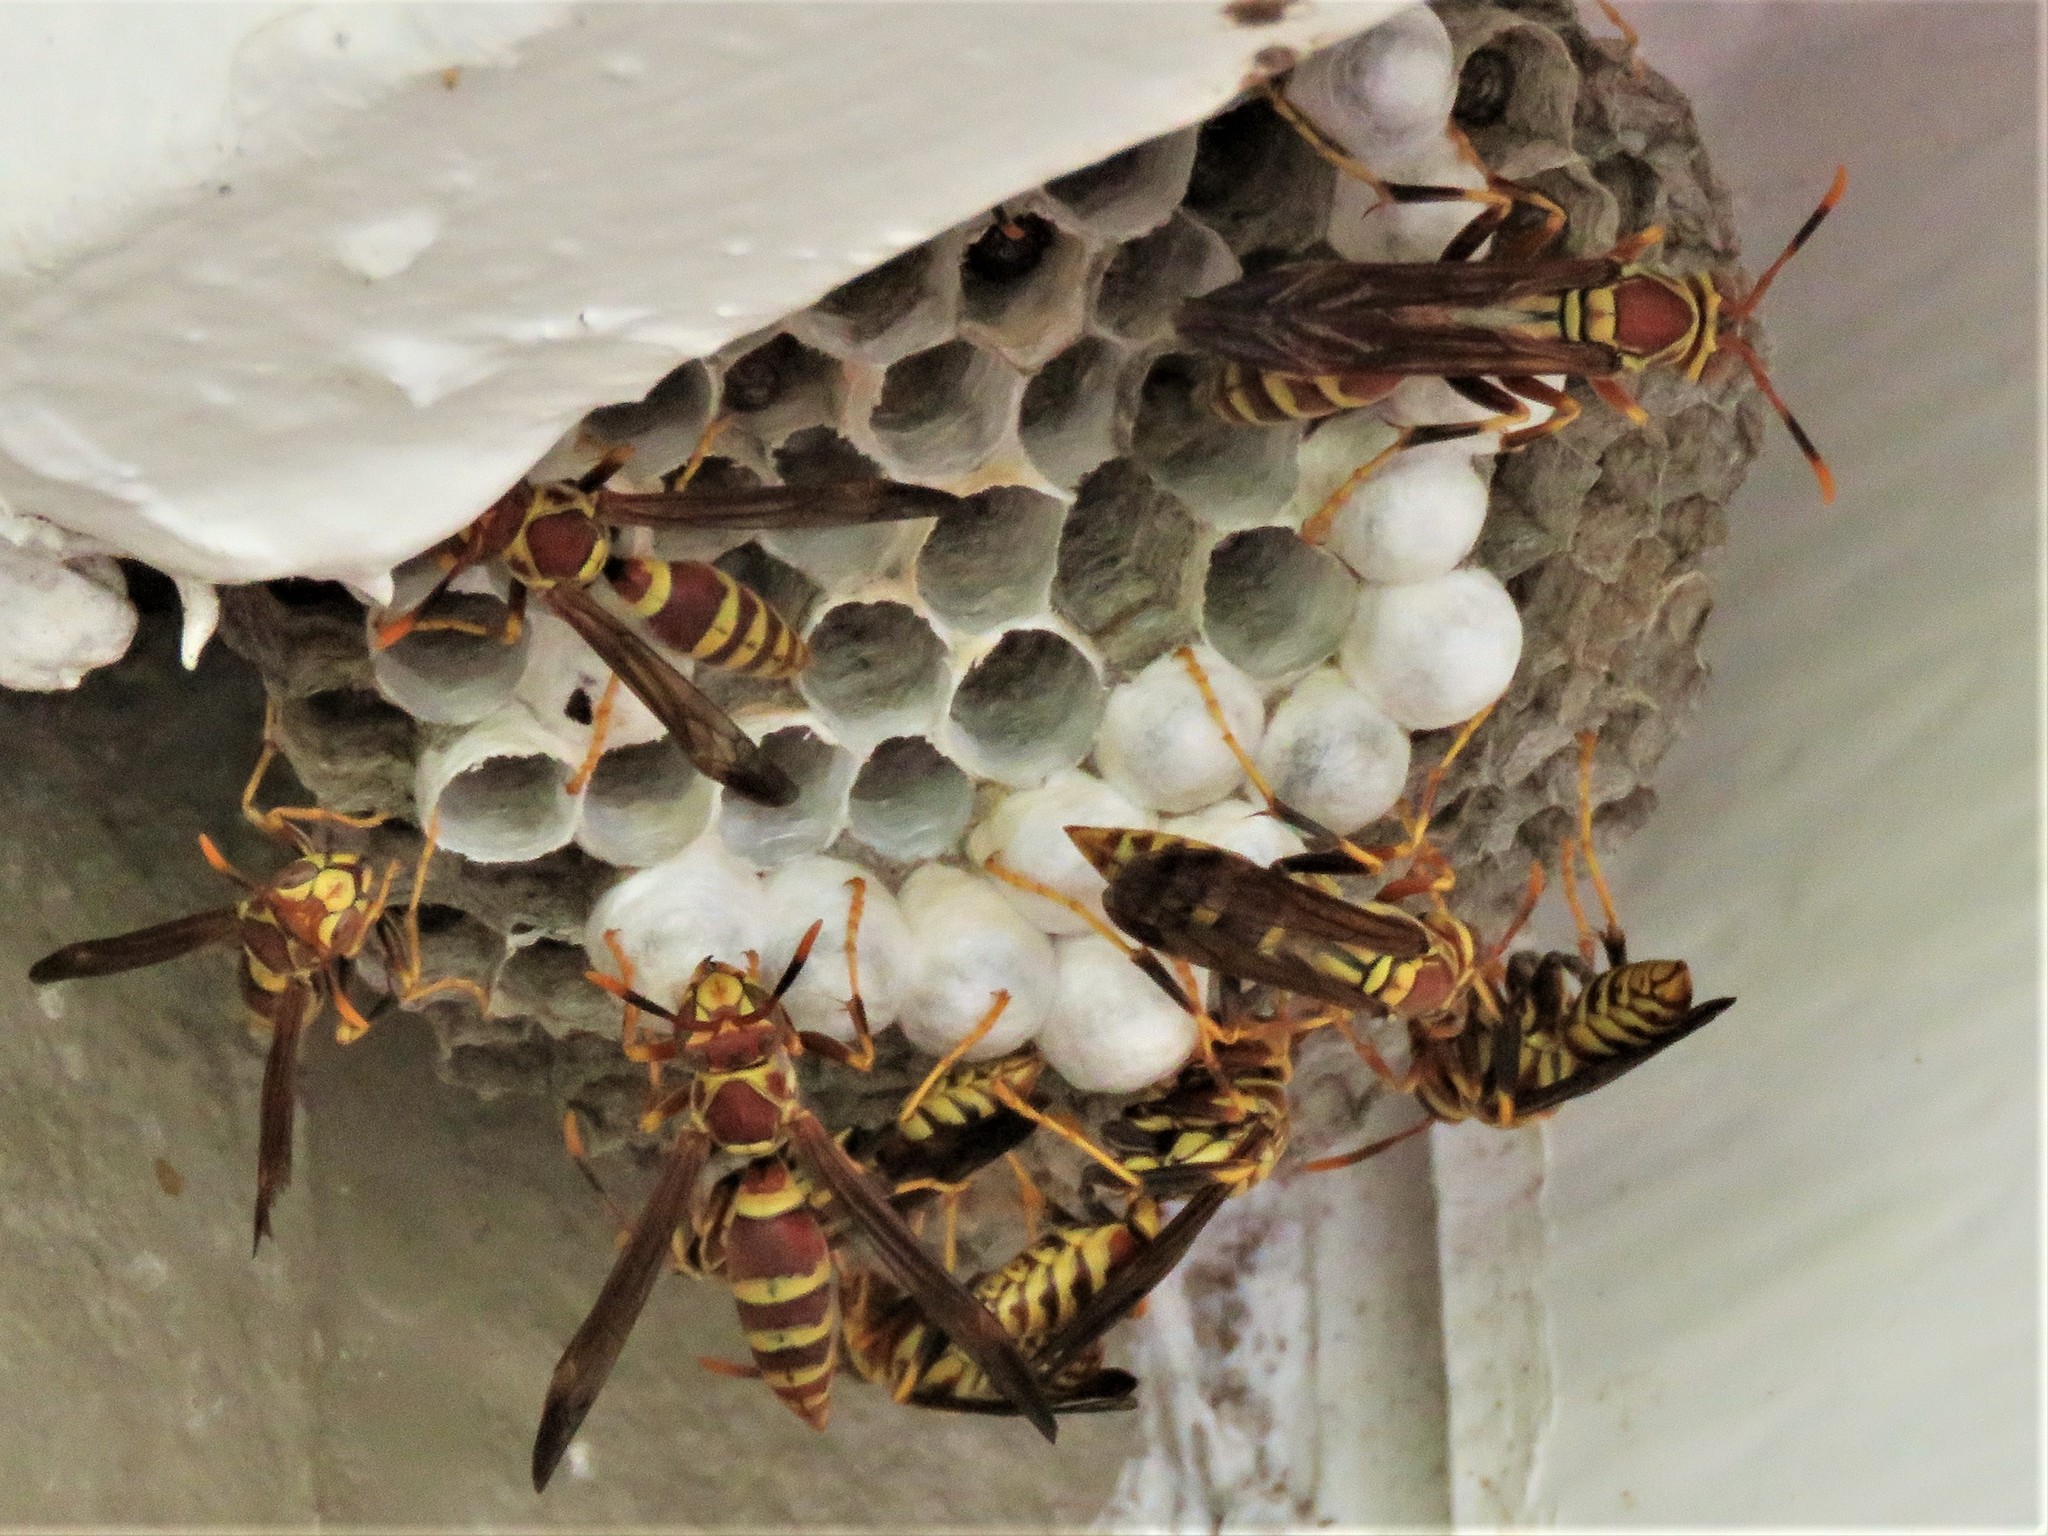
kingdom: Animalia
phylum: Arthropoda
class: Insecta
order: Hymenoptera
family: Eumenidae
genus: Polistes
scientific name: Polistes exclamans
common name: Paper wasp
